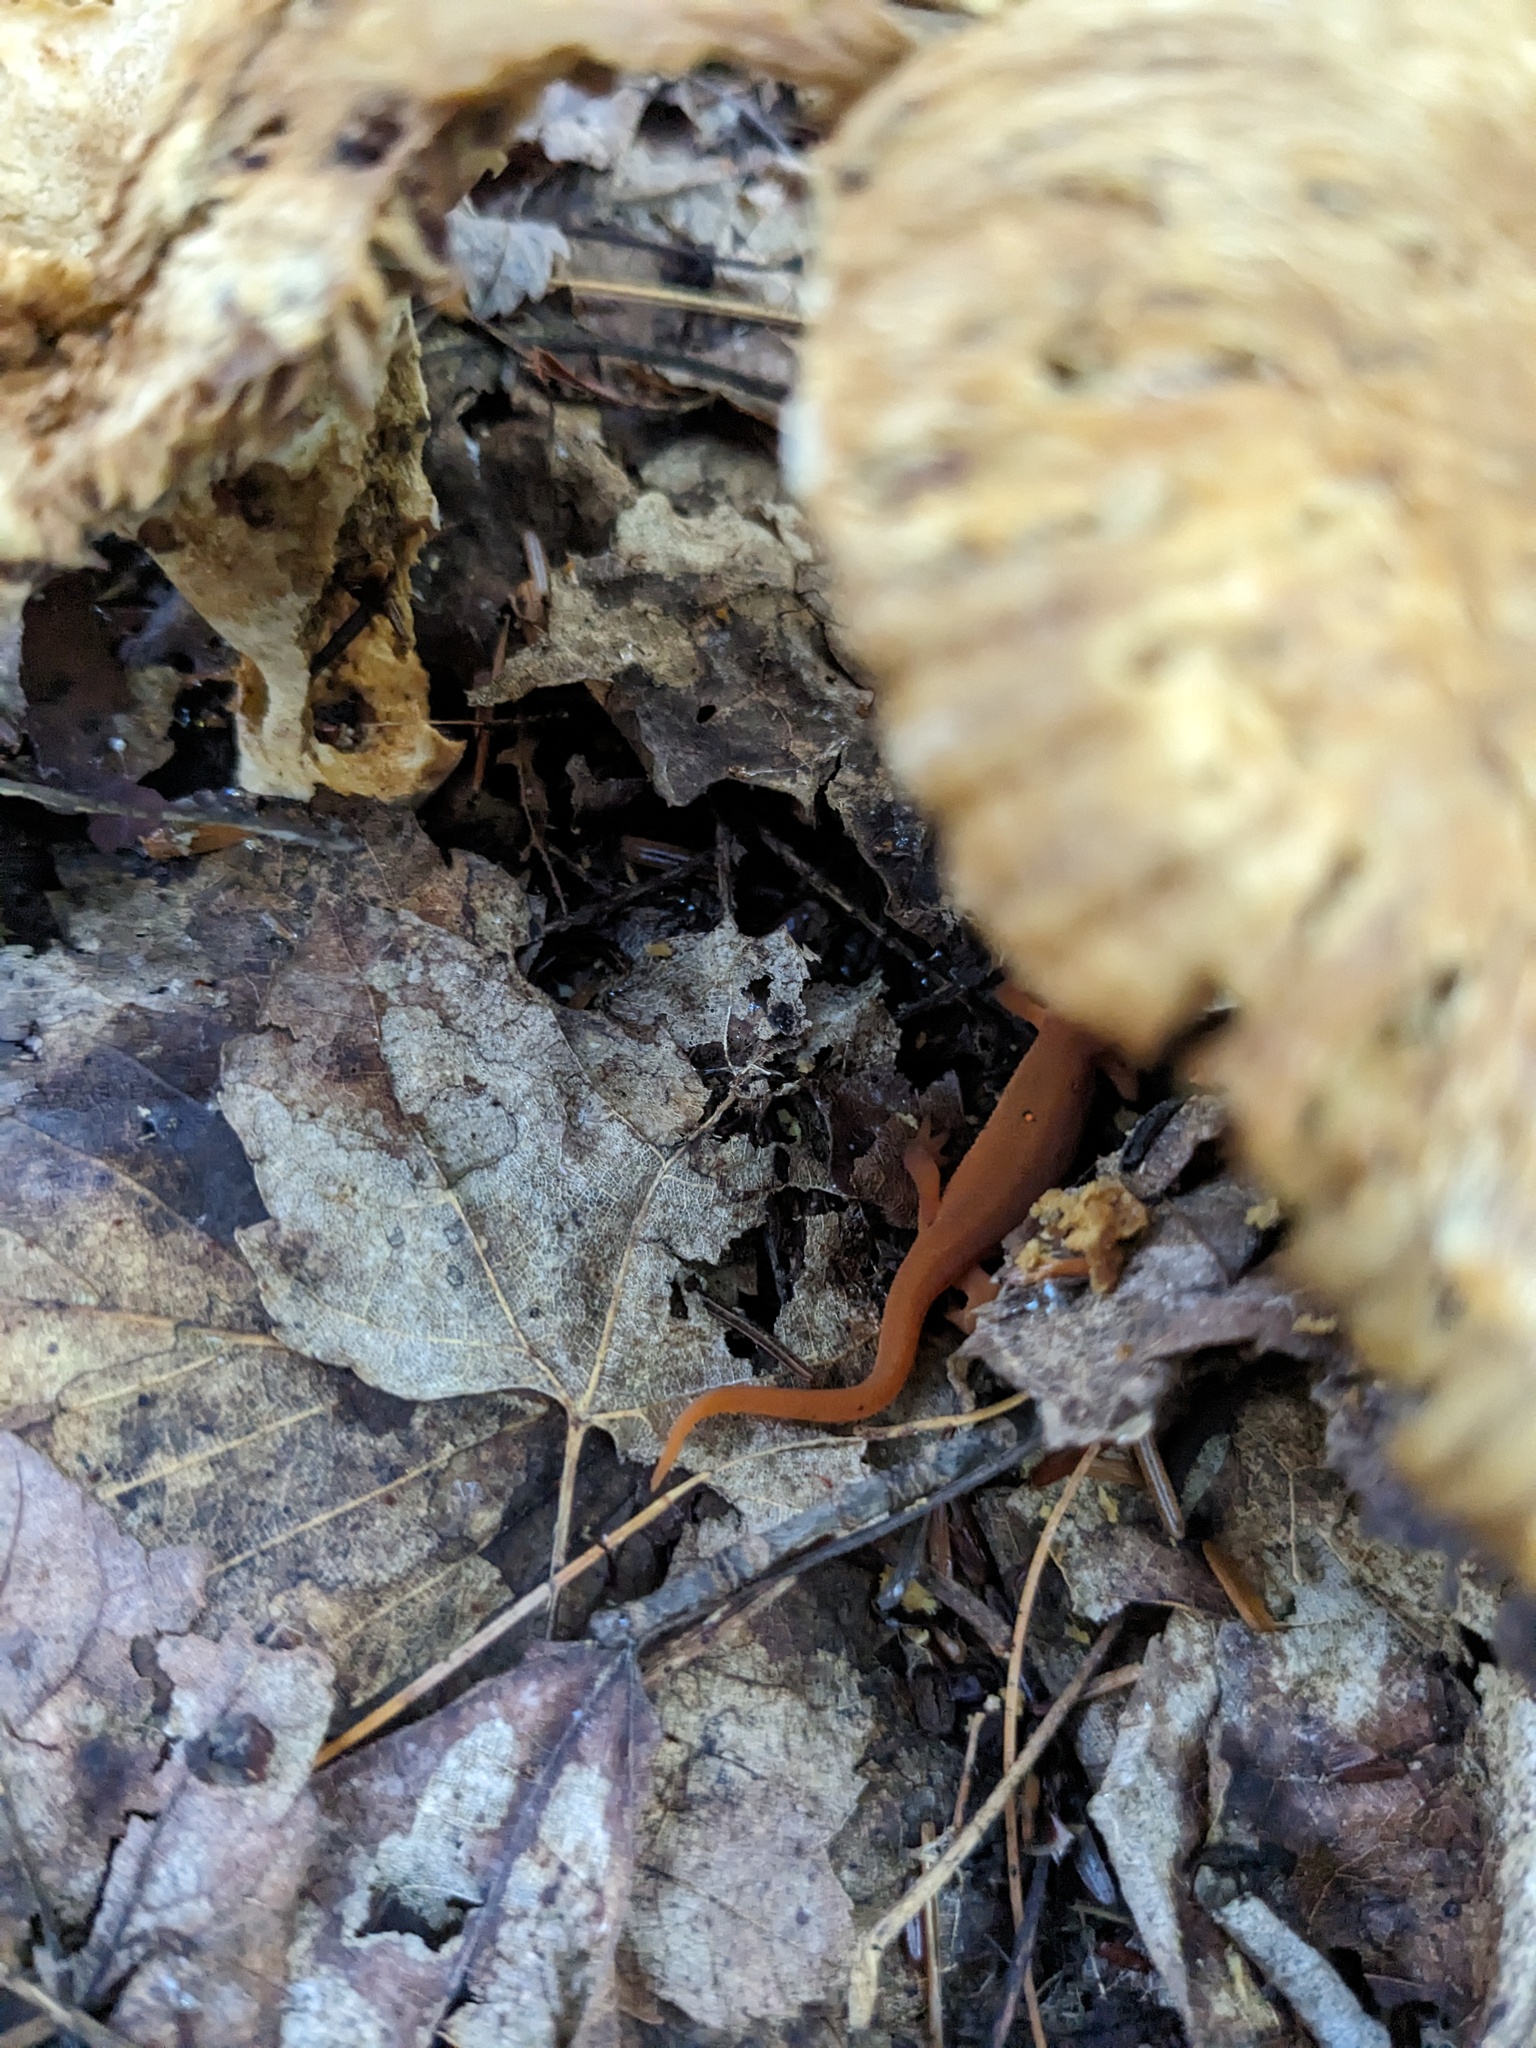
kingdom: Animalia
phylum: Chordata
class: Amphibia
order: Caudata
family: Salamandridae
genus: Notophthalmus
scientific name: Notophthalmus viridescens
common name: Eastern newt
